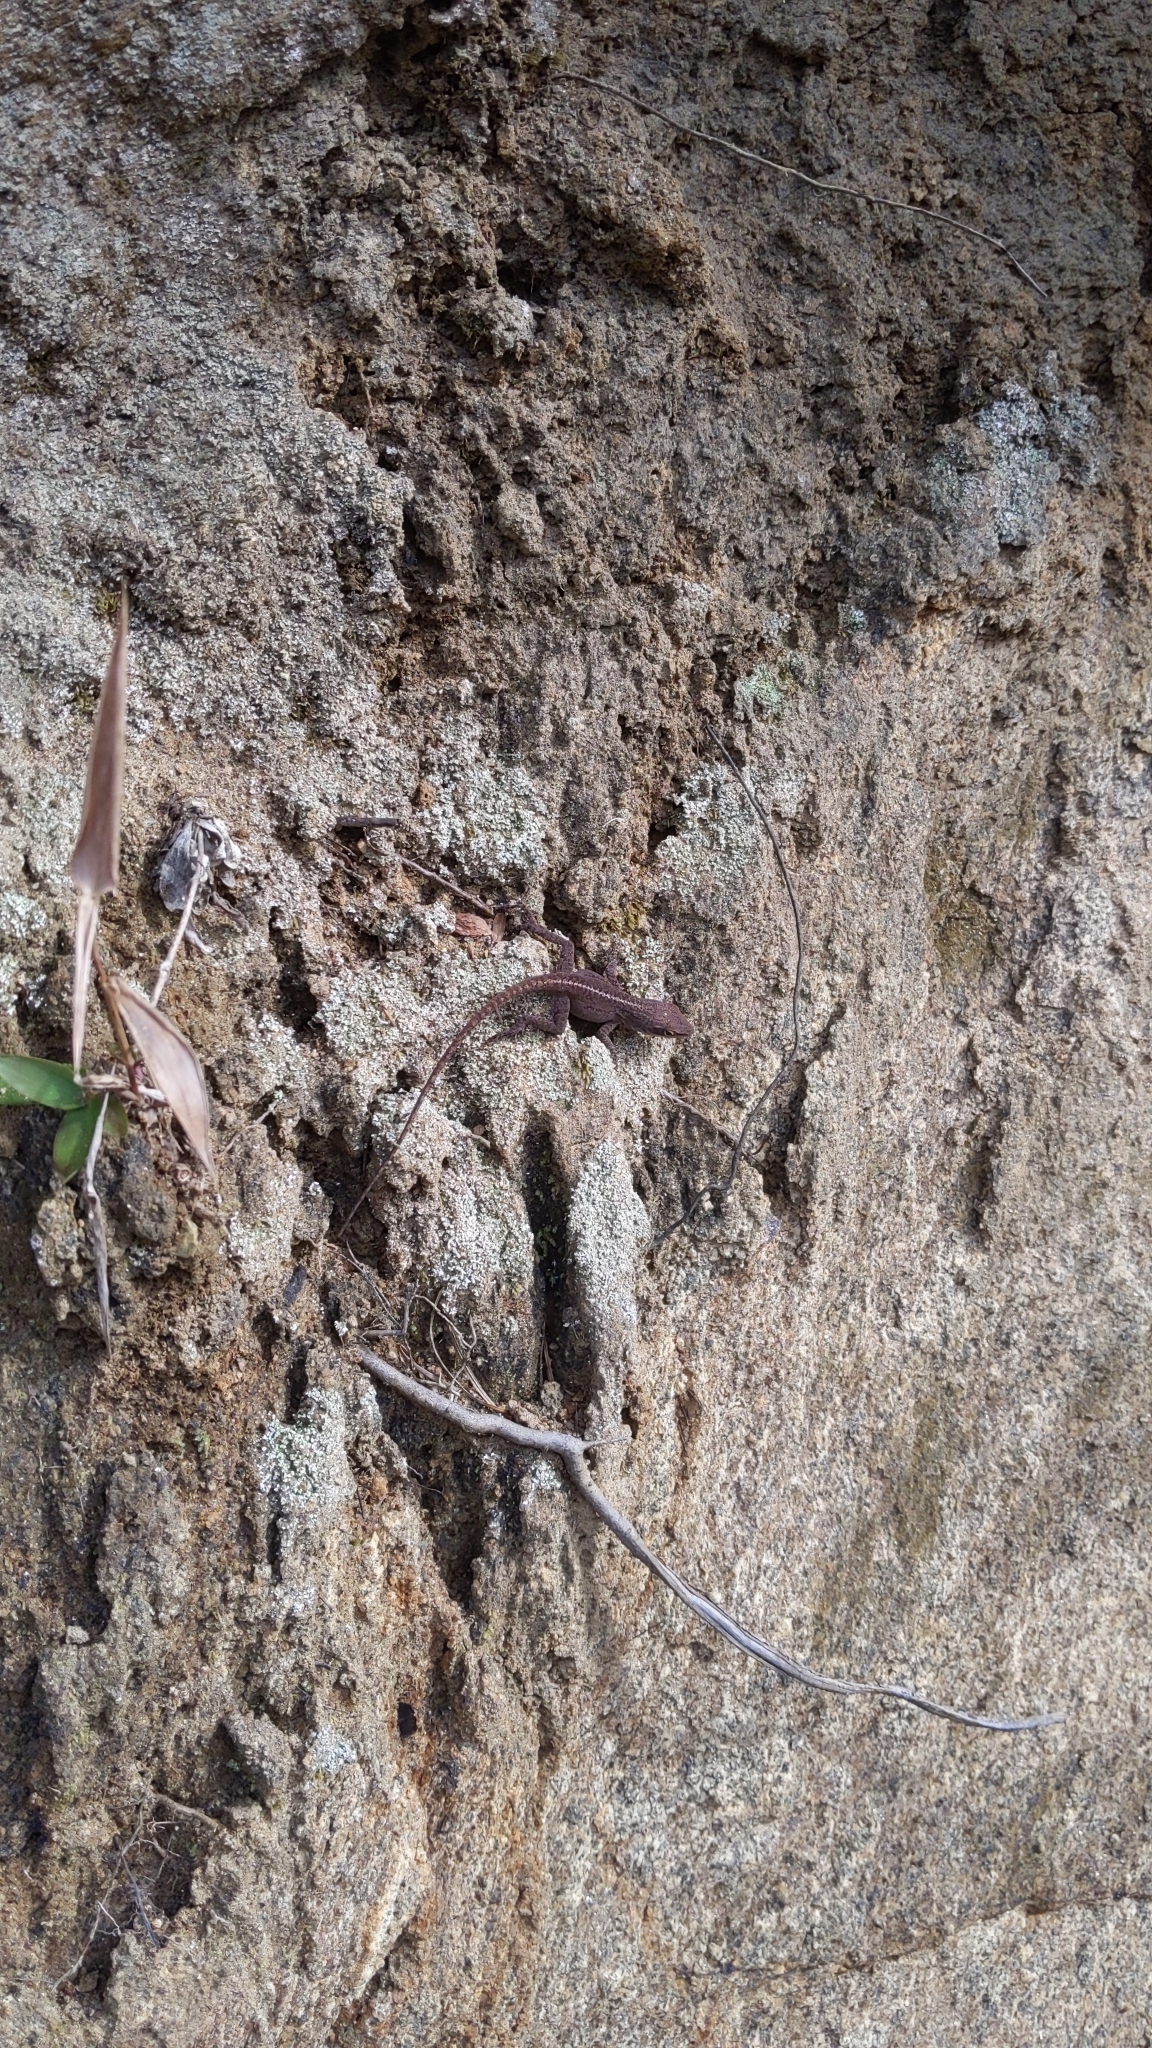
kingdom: Animalia
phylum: Chordata
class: Squamata
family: Dactyloidae
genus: Anolis
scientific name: Anolis carolinensis
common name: Green anole
